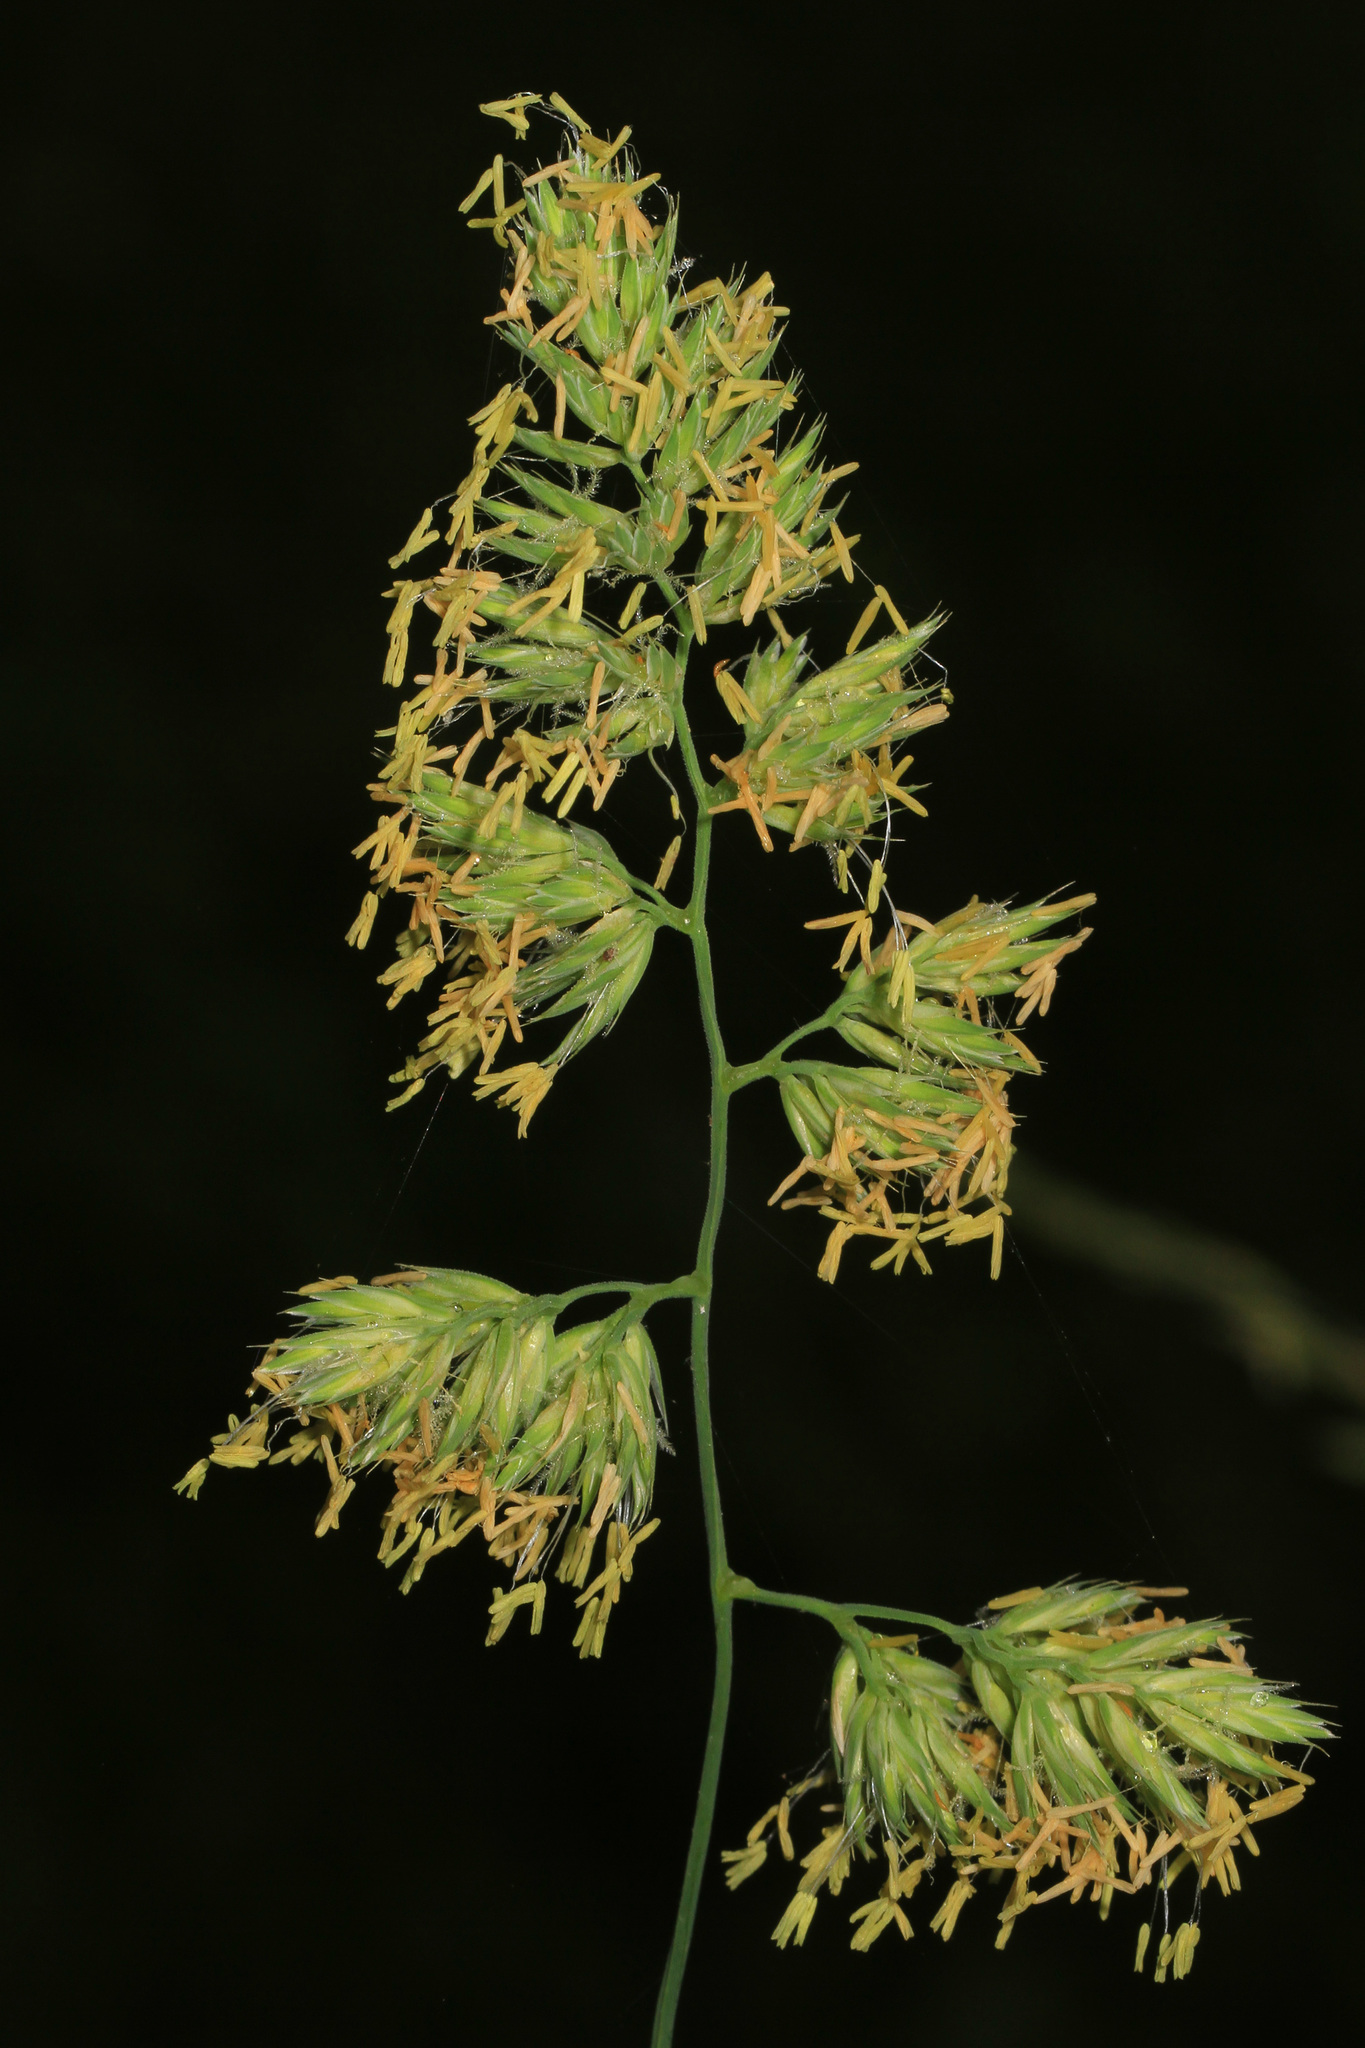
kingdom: Plantae
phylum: Tracheophyta
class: Liliopsida
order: Poales
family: Poaceae
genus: Dactylis
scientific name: Dactylis glomerata
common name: Orchardgrass
